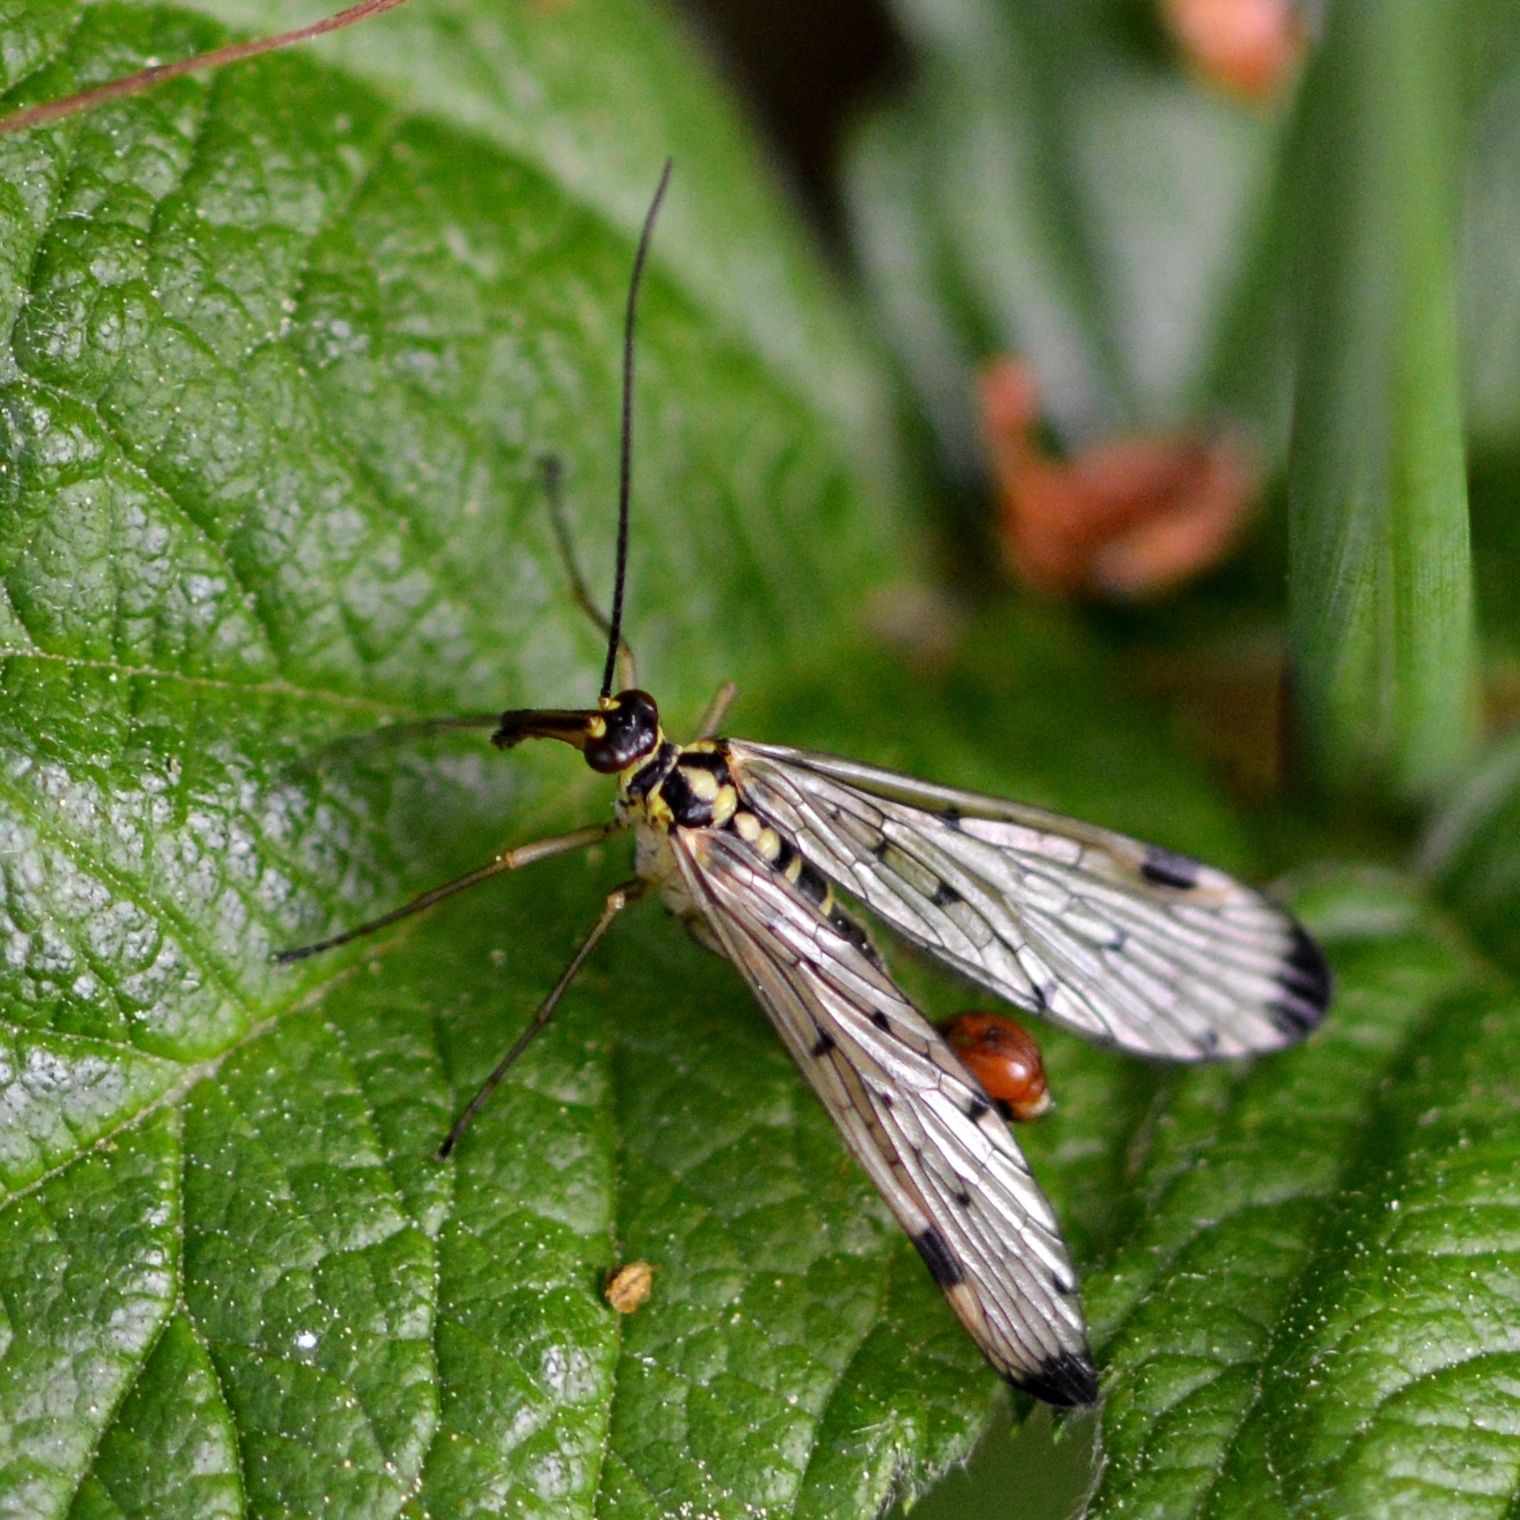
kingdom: Animalia
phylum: Arthropoda
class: Insecta
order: Mecoptera
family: Panorpidae
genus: Panorpa
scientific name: Panorpa germanica
